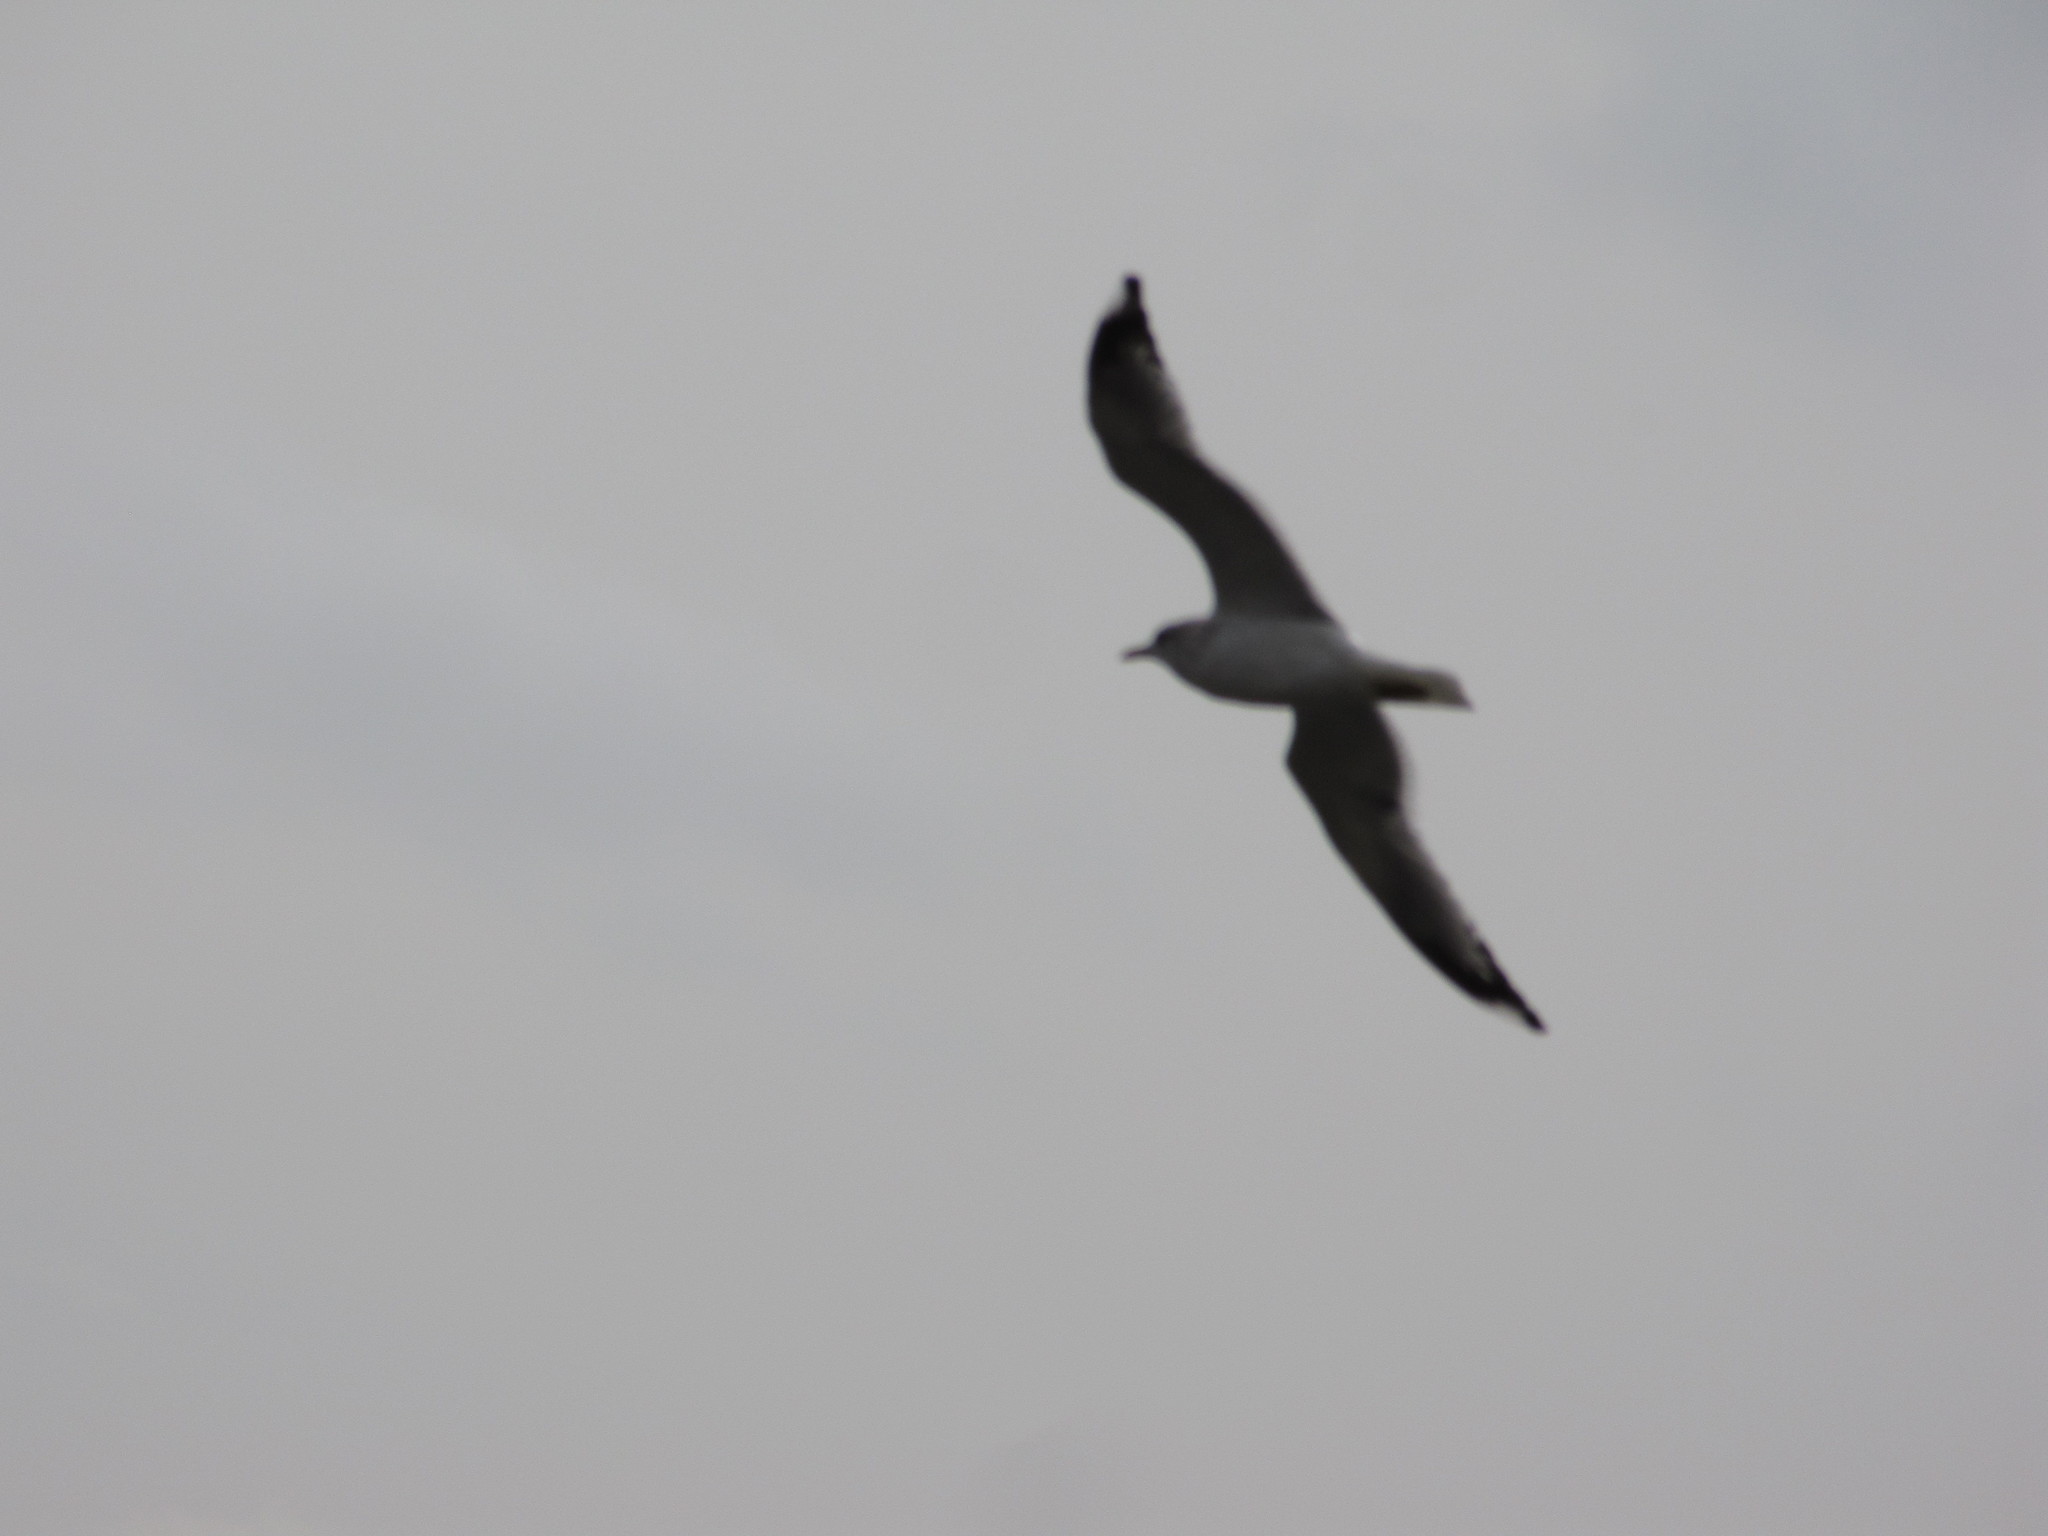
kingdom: Animalia
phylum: Chordata
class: Aves
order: Charadriiformes
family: Laridae
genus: Larus
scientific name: Larus californicus
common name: California gull
